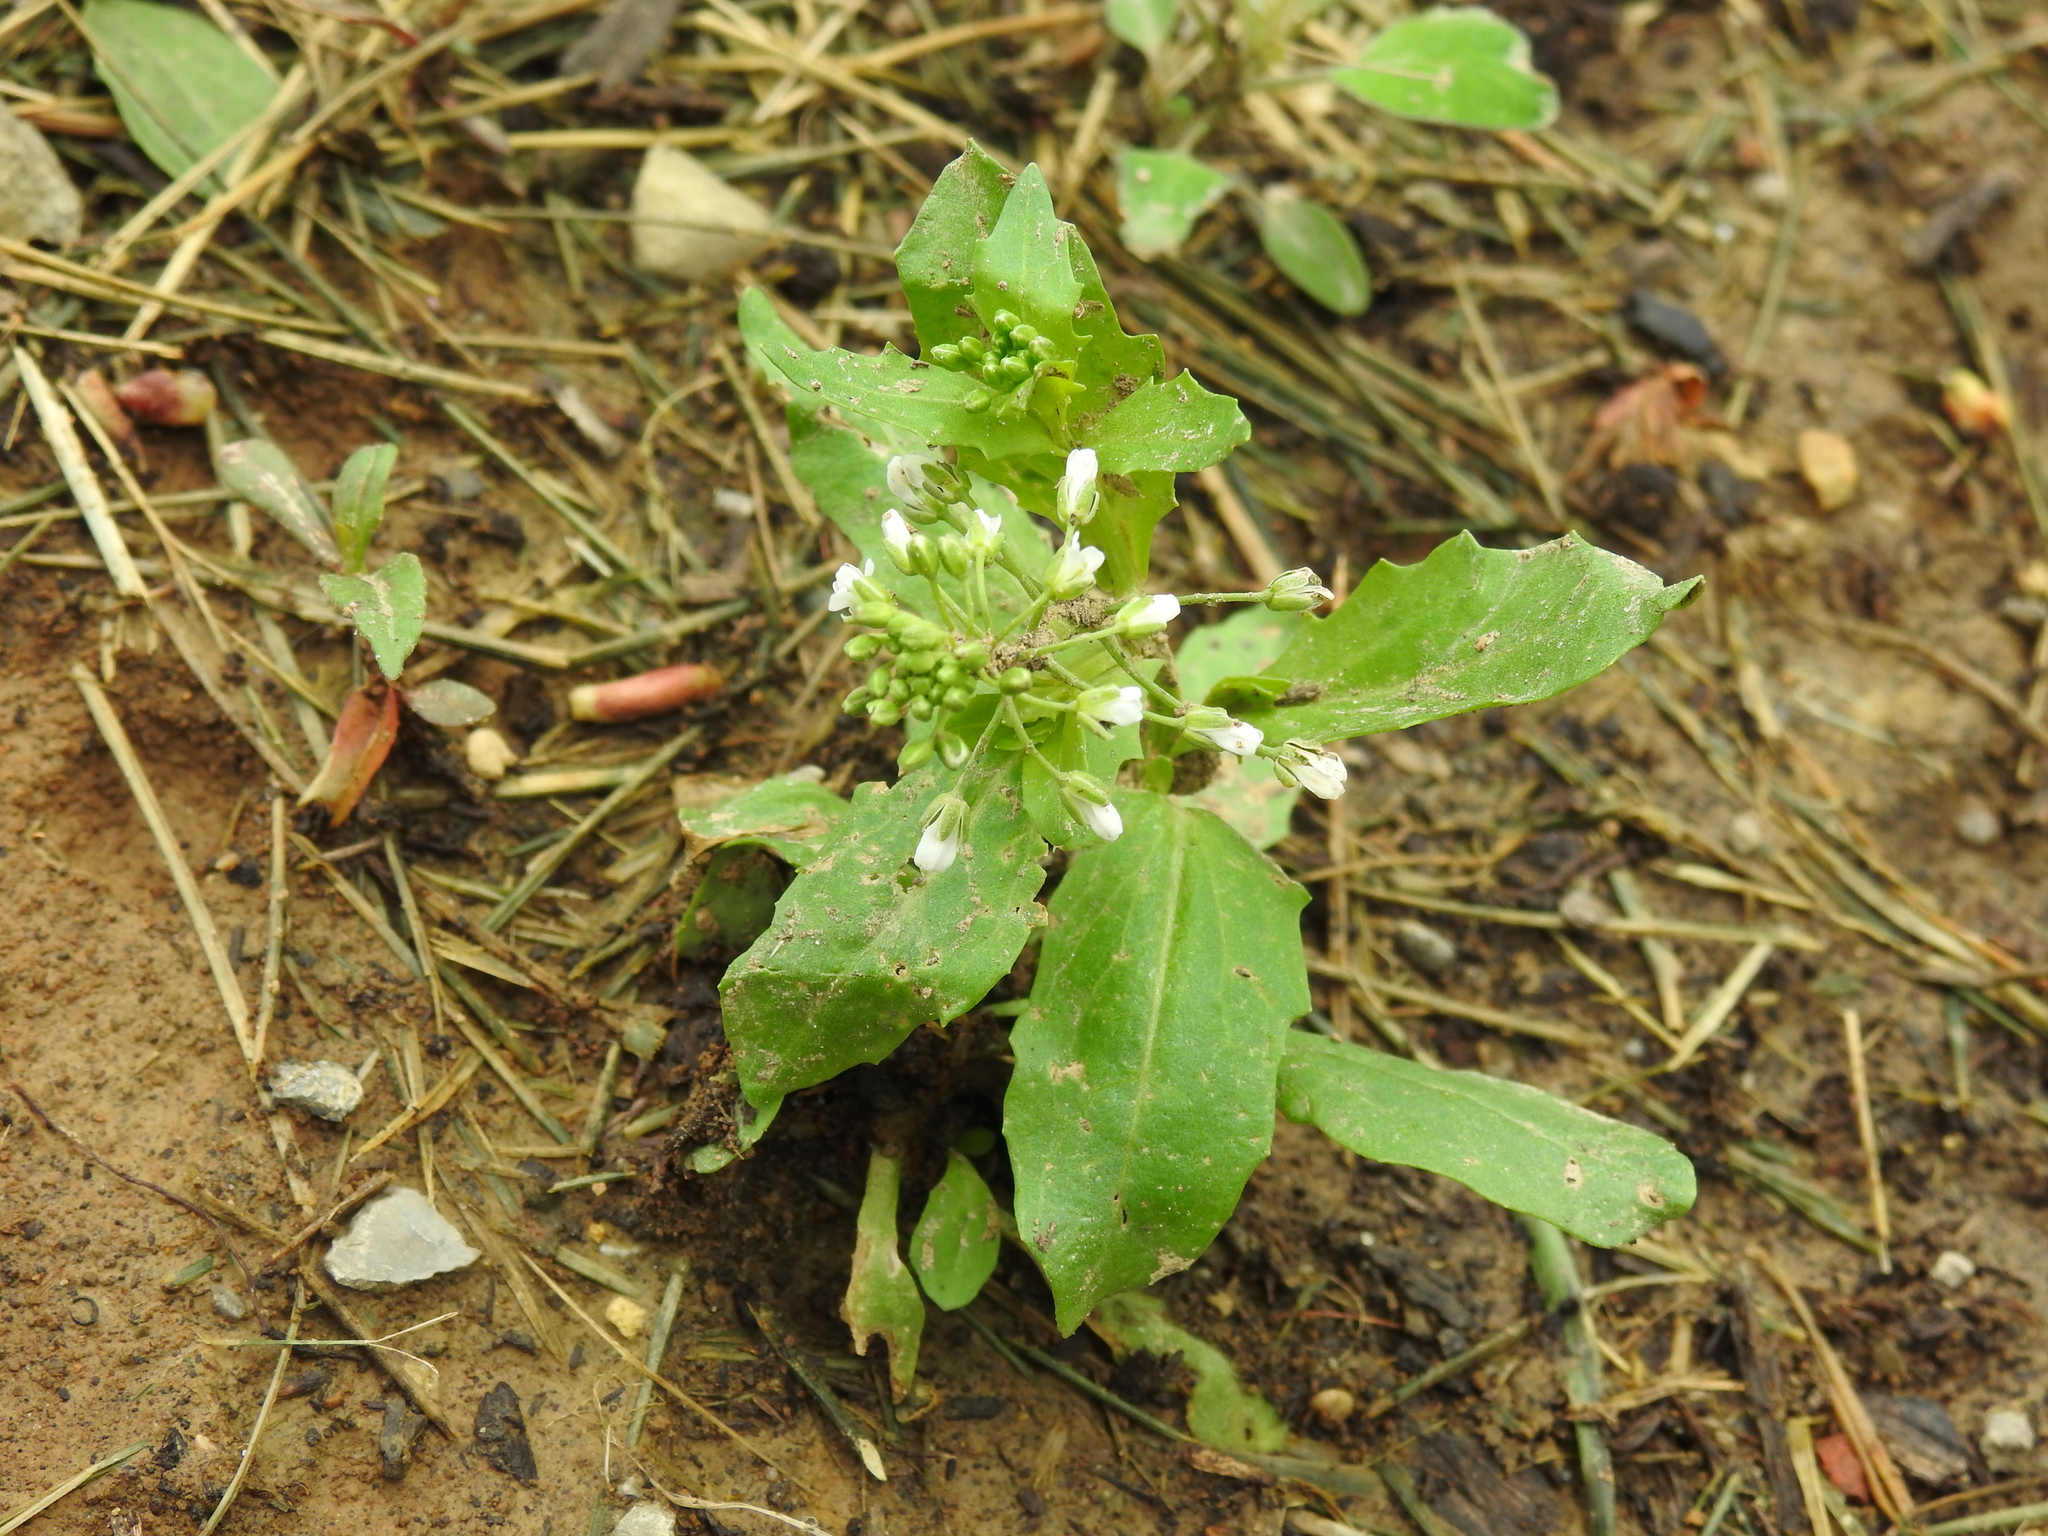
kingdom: Plantae
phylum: Tracheophyta
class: Magnoliopsida
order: Brassicales
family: Brassicaceae
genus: Thlaspi
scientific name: Thlaspi arvense
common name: Field pennycress
